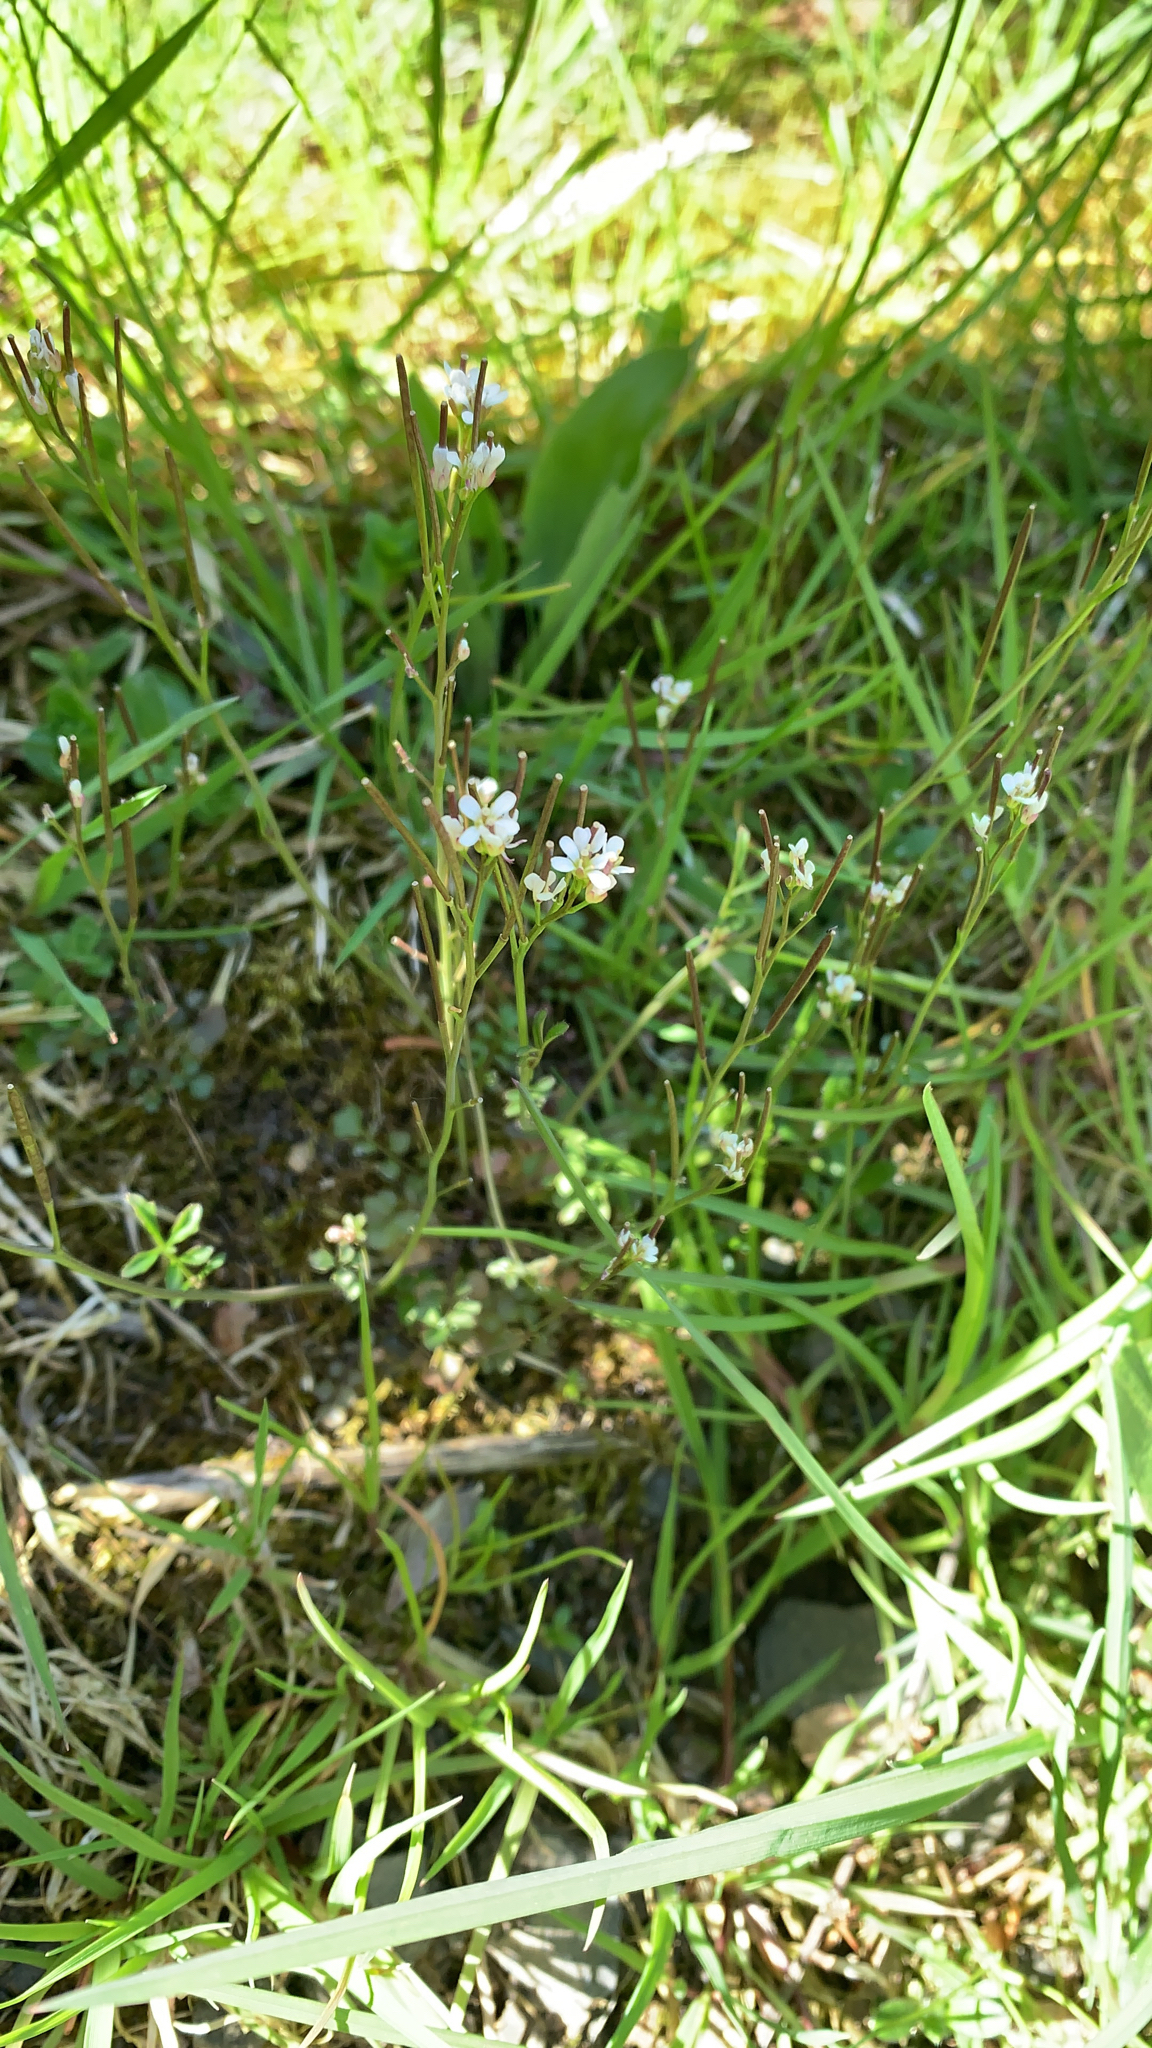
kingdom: Plantae
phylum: Tracheophyta
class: Magnoliopsida
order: Brassicales
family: Brassicaceae
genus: Cardamine
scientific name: Cardamine hirsuta
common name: Hairy bittercress
